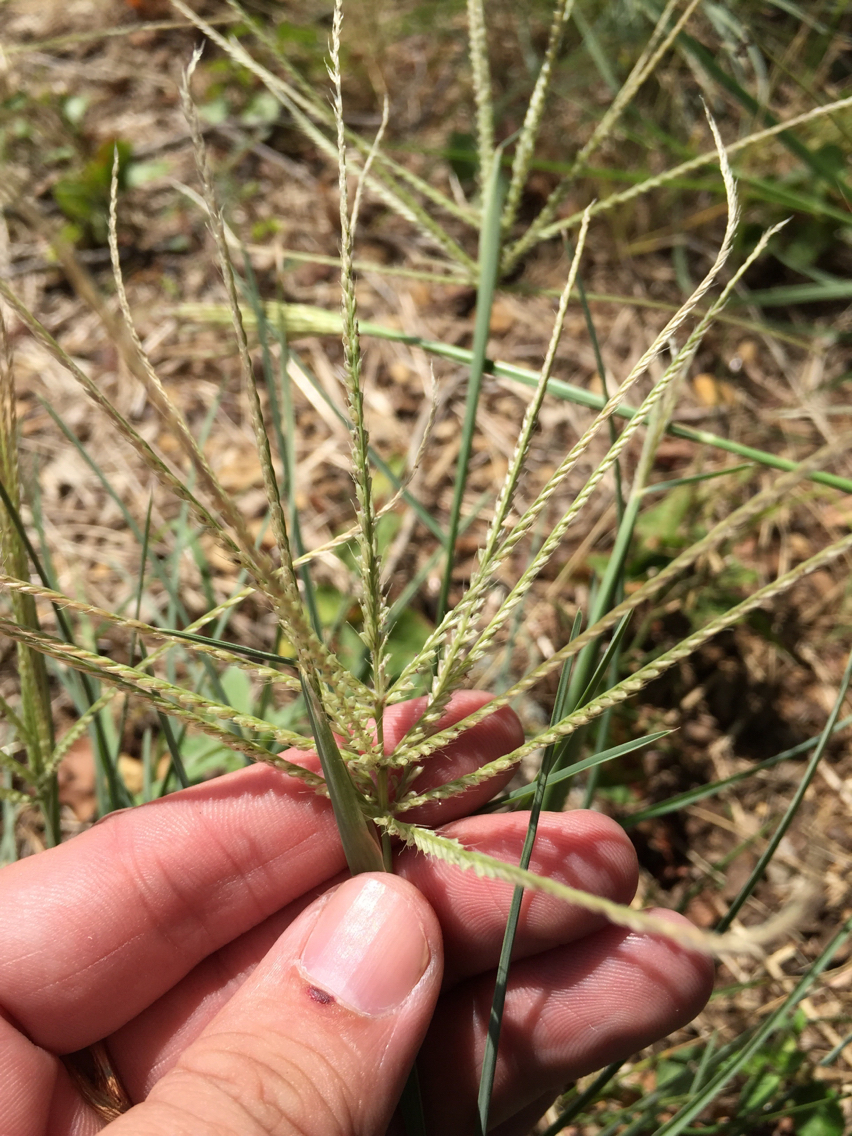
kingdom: Plantae
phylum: Tracheophyta
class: Liliopsida
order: Poales
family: Poaceae
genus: Chloris
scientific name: Chloris verticillata
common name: Tumble windmill grass
